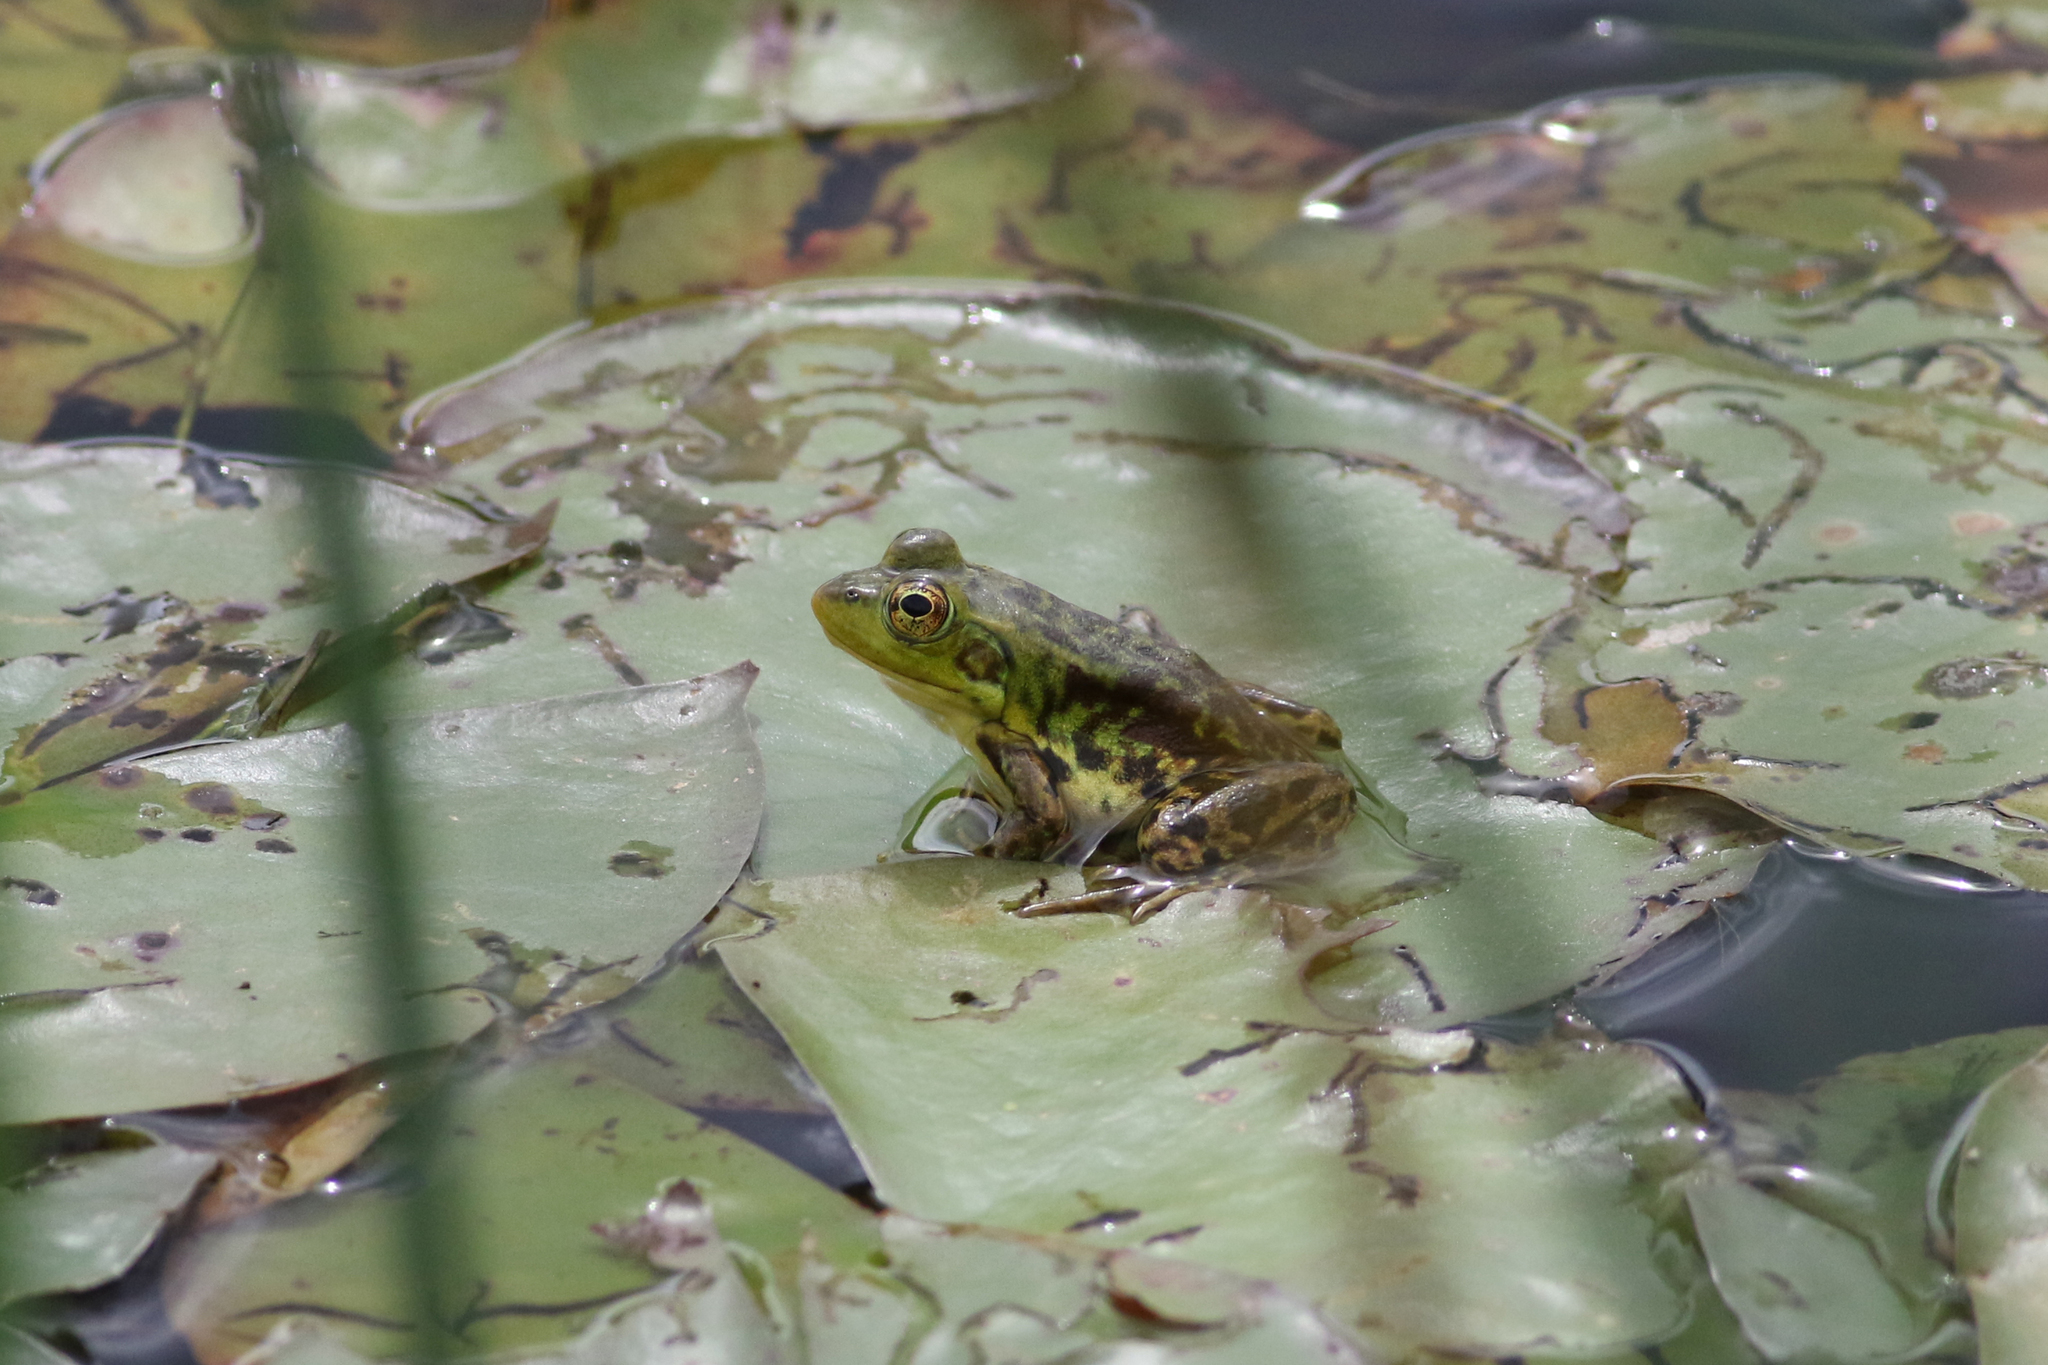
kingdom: Animalia
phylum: Chordata
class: Amphibia
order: Anura
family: Ranidae
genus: Lithobates
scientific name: Lithobates septentrionalis
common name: Mink frog
